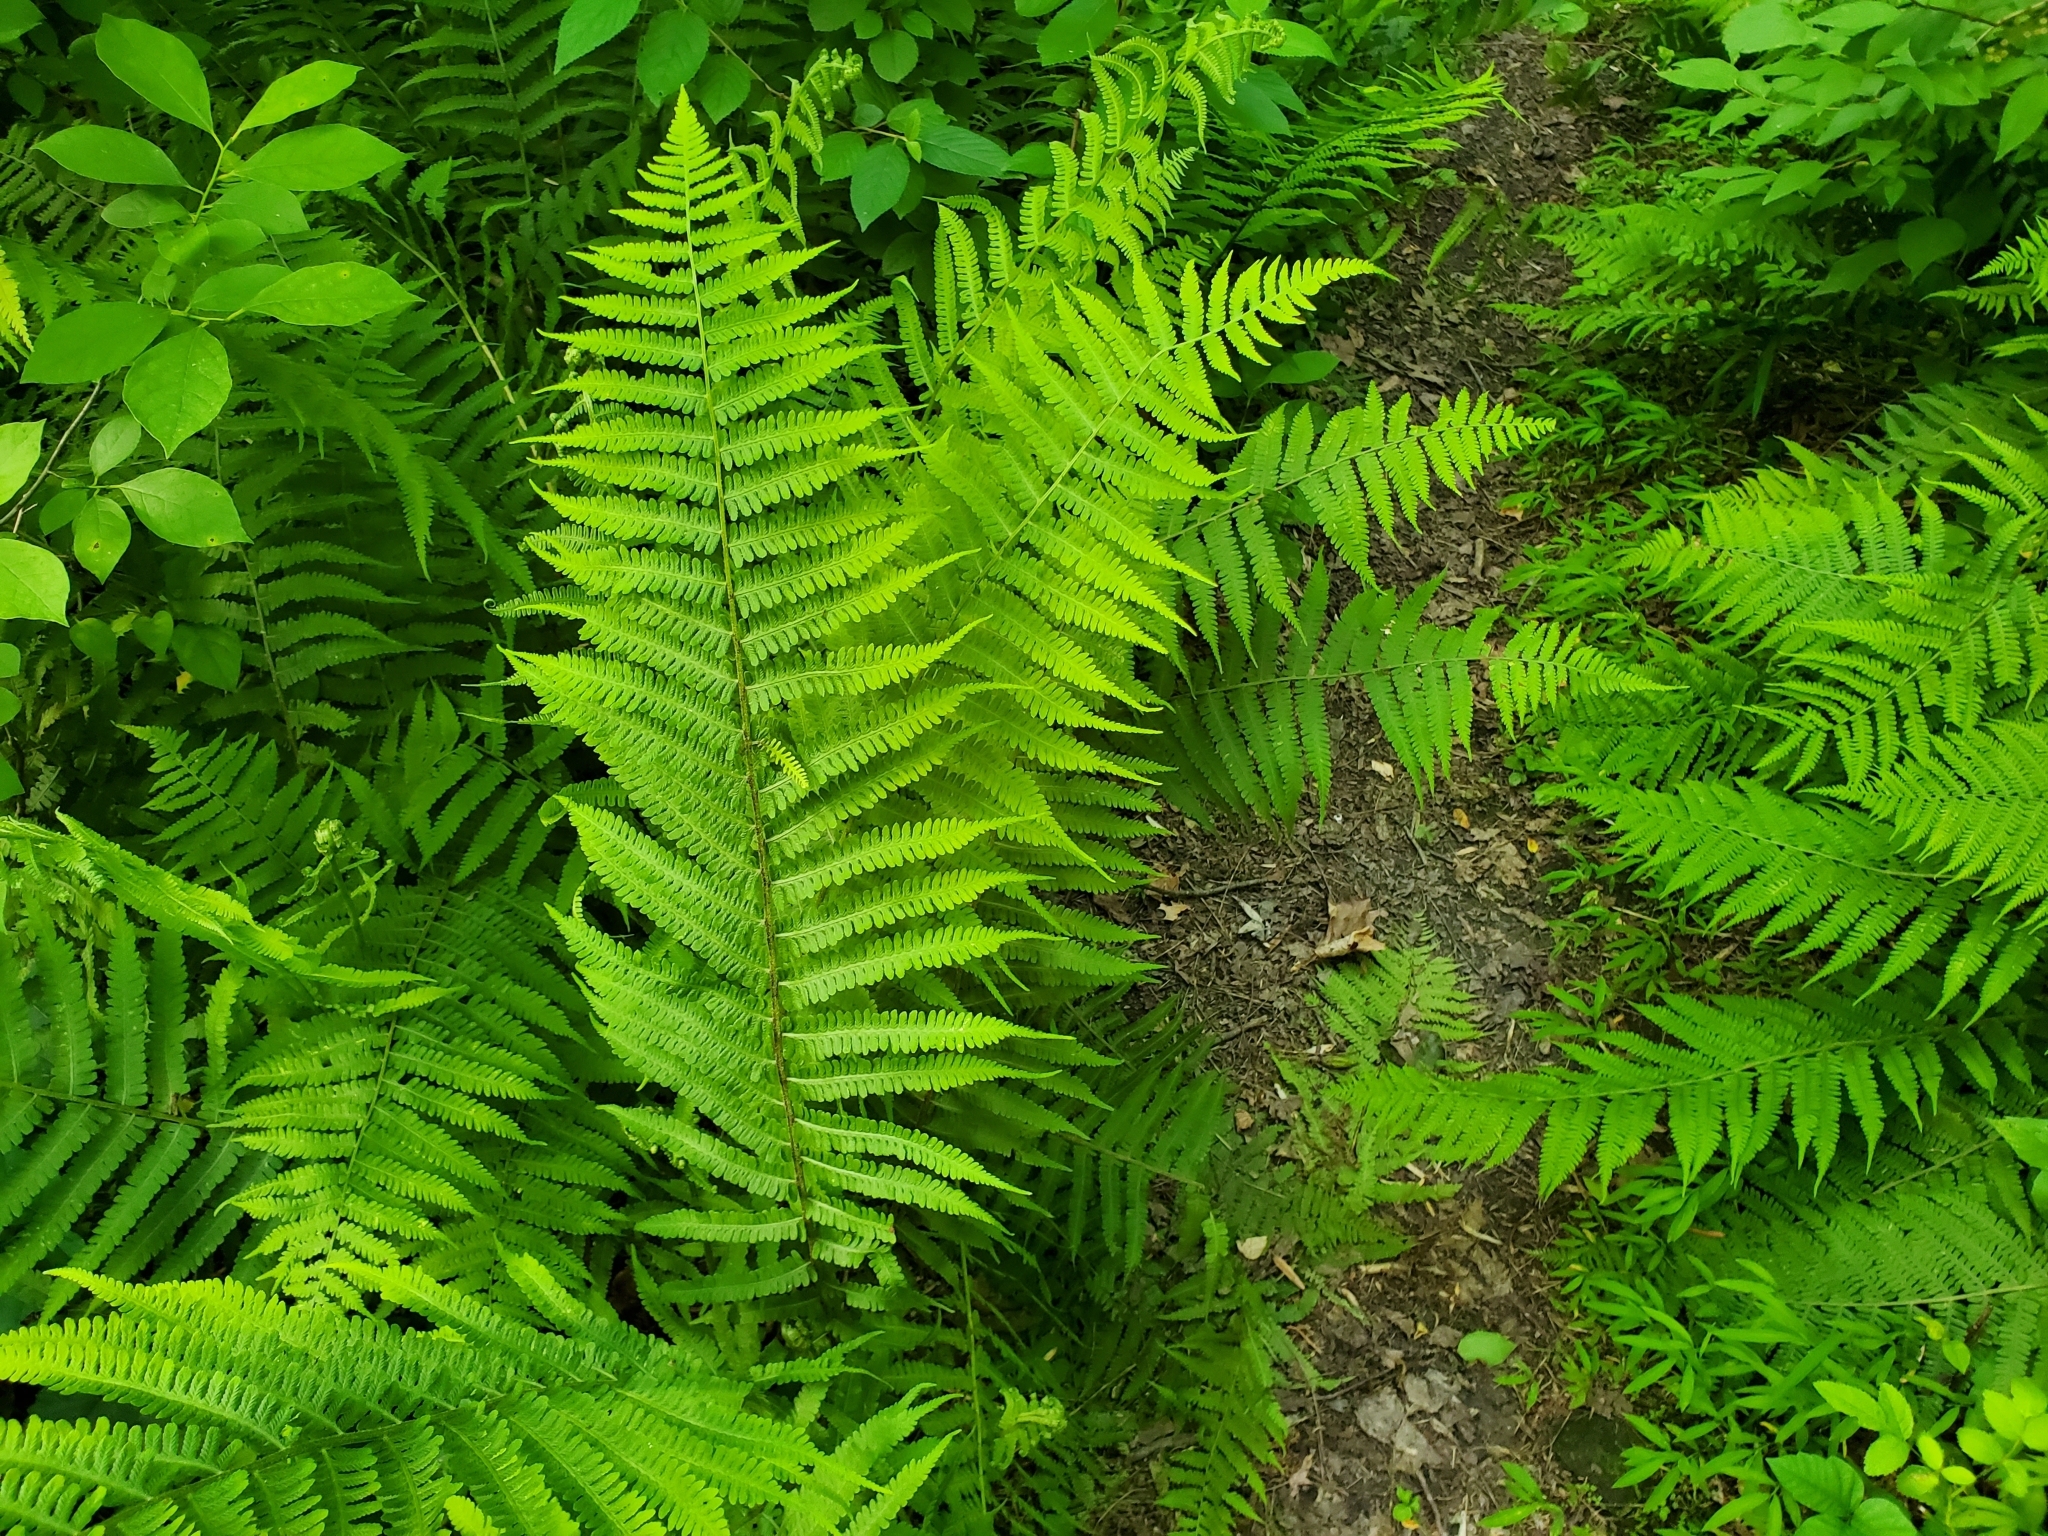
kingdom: Plantae
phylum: Tracheophyta
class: Polypodiopsida
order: Polypodiales
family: Athyriaceae
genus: Deparia
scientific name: Deparia acrostichoides
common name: Silver false spleenwort
